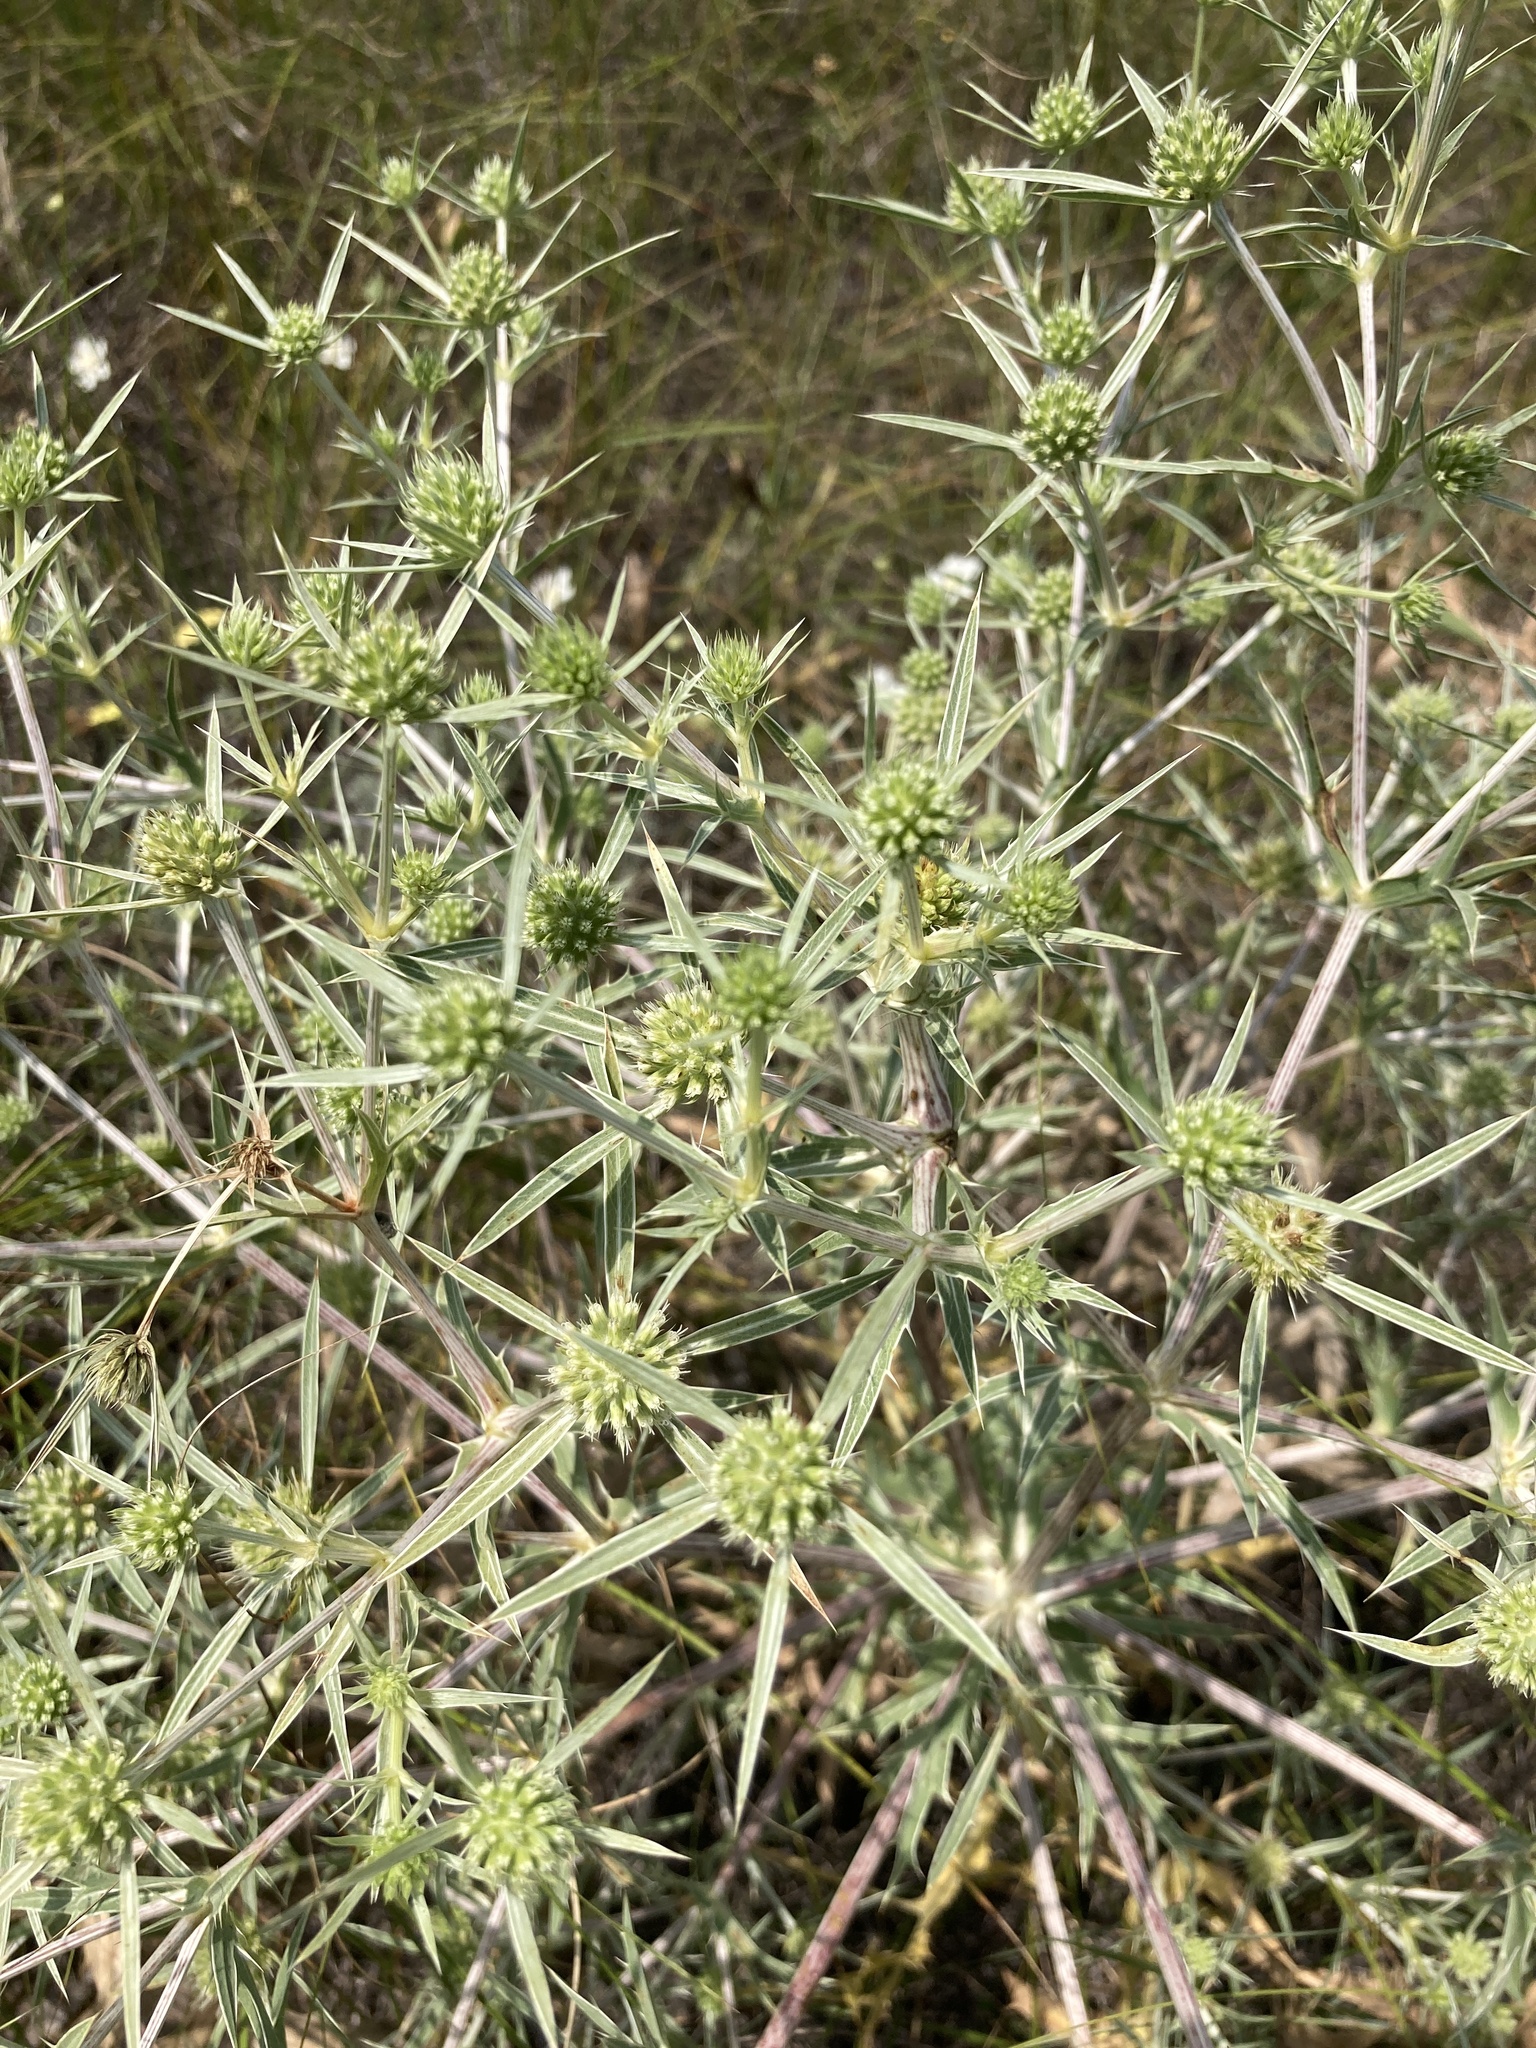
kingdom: Plantae
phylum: Tracheophyta
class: Magnoliopsida
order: Apiales
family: Apiaceae
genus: Eryngium
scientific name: Eryngium campestre
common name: Field eryngo
